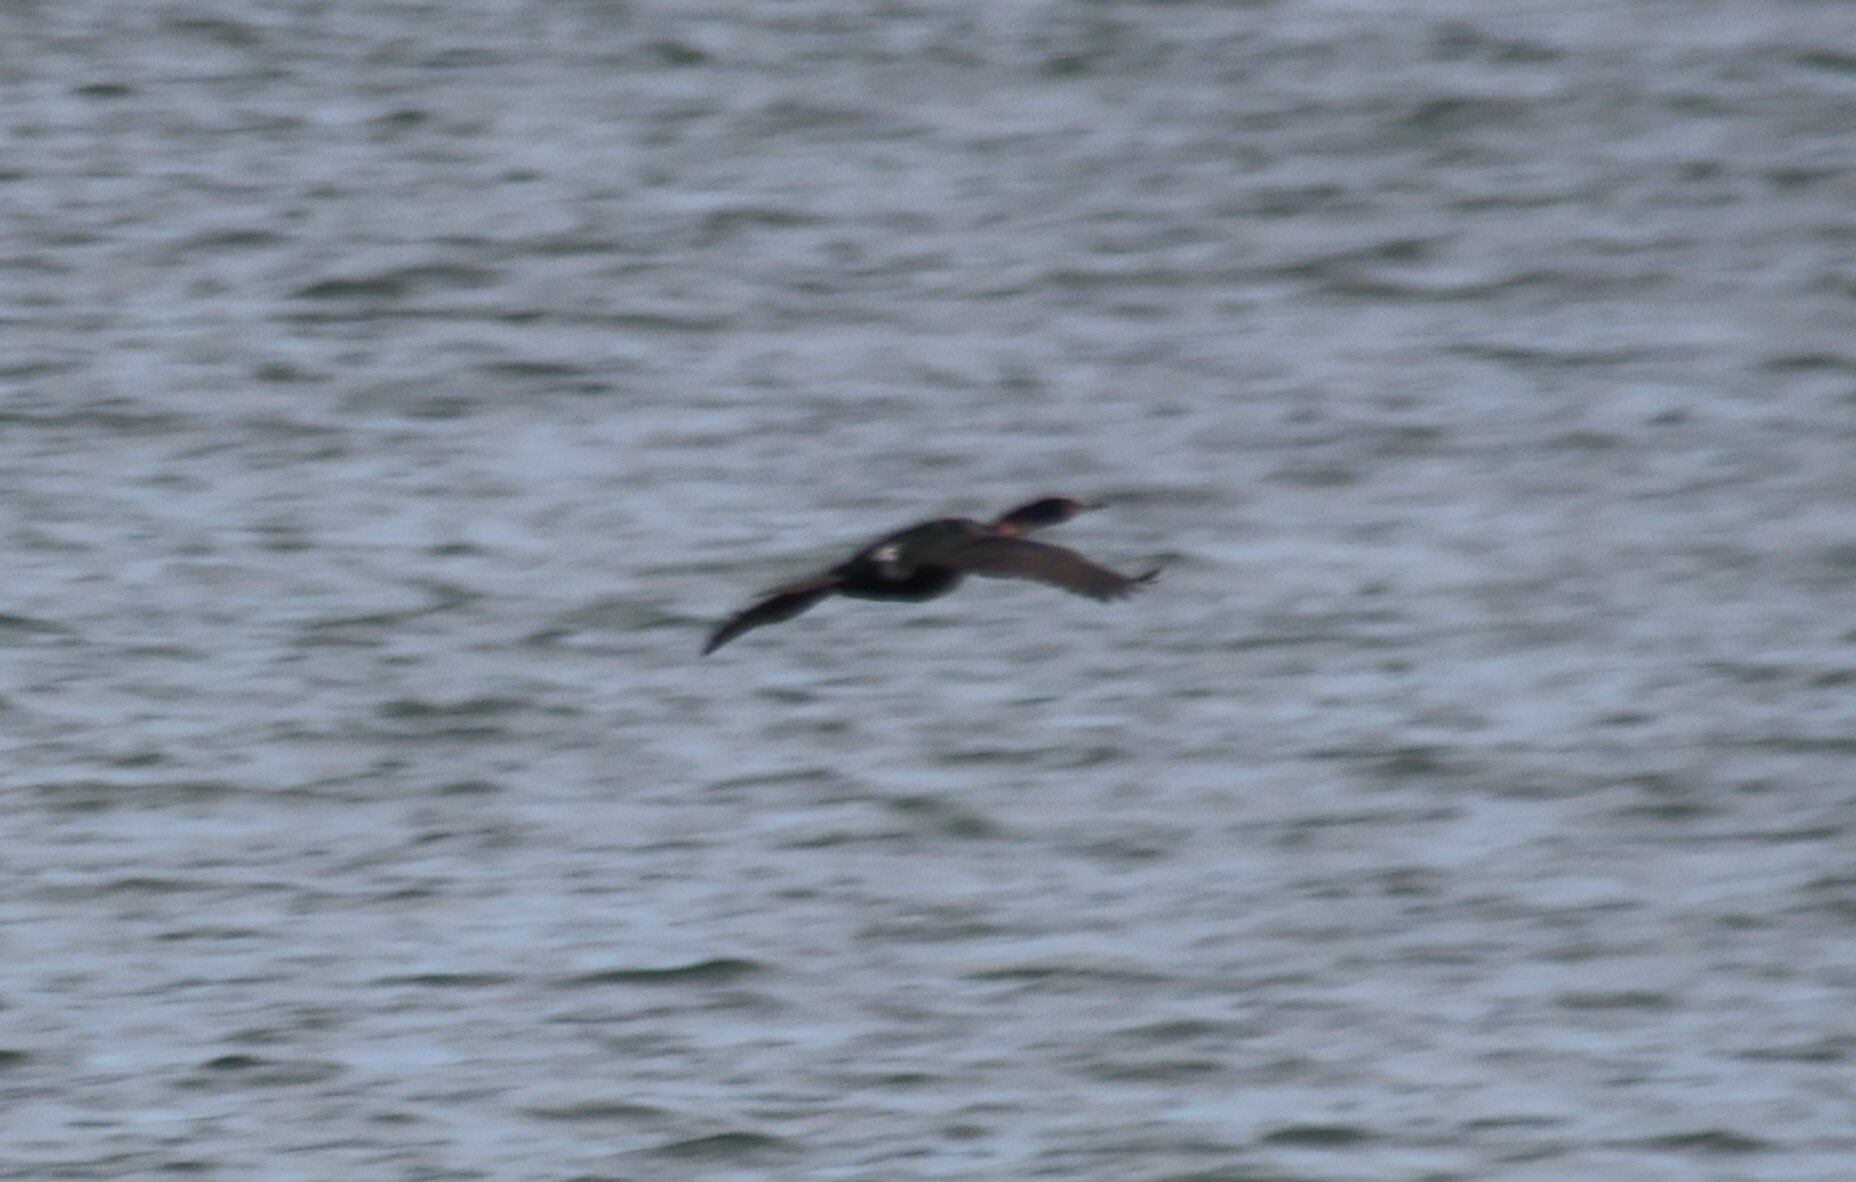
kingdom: Animalia
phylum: Chordata
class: Aves
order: Suliformes
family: Phalacrocoracidae
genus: Phalacrocorax
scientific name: Phalacrocorax pelagicus
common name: Pelagic cormorant
